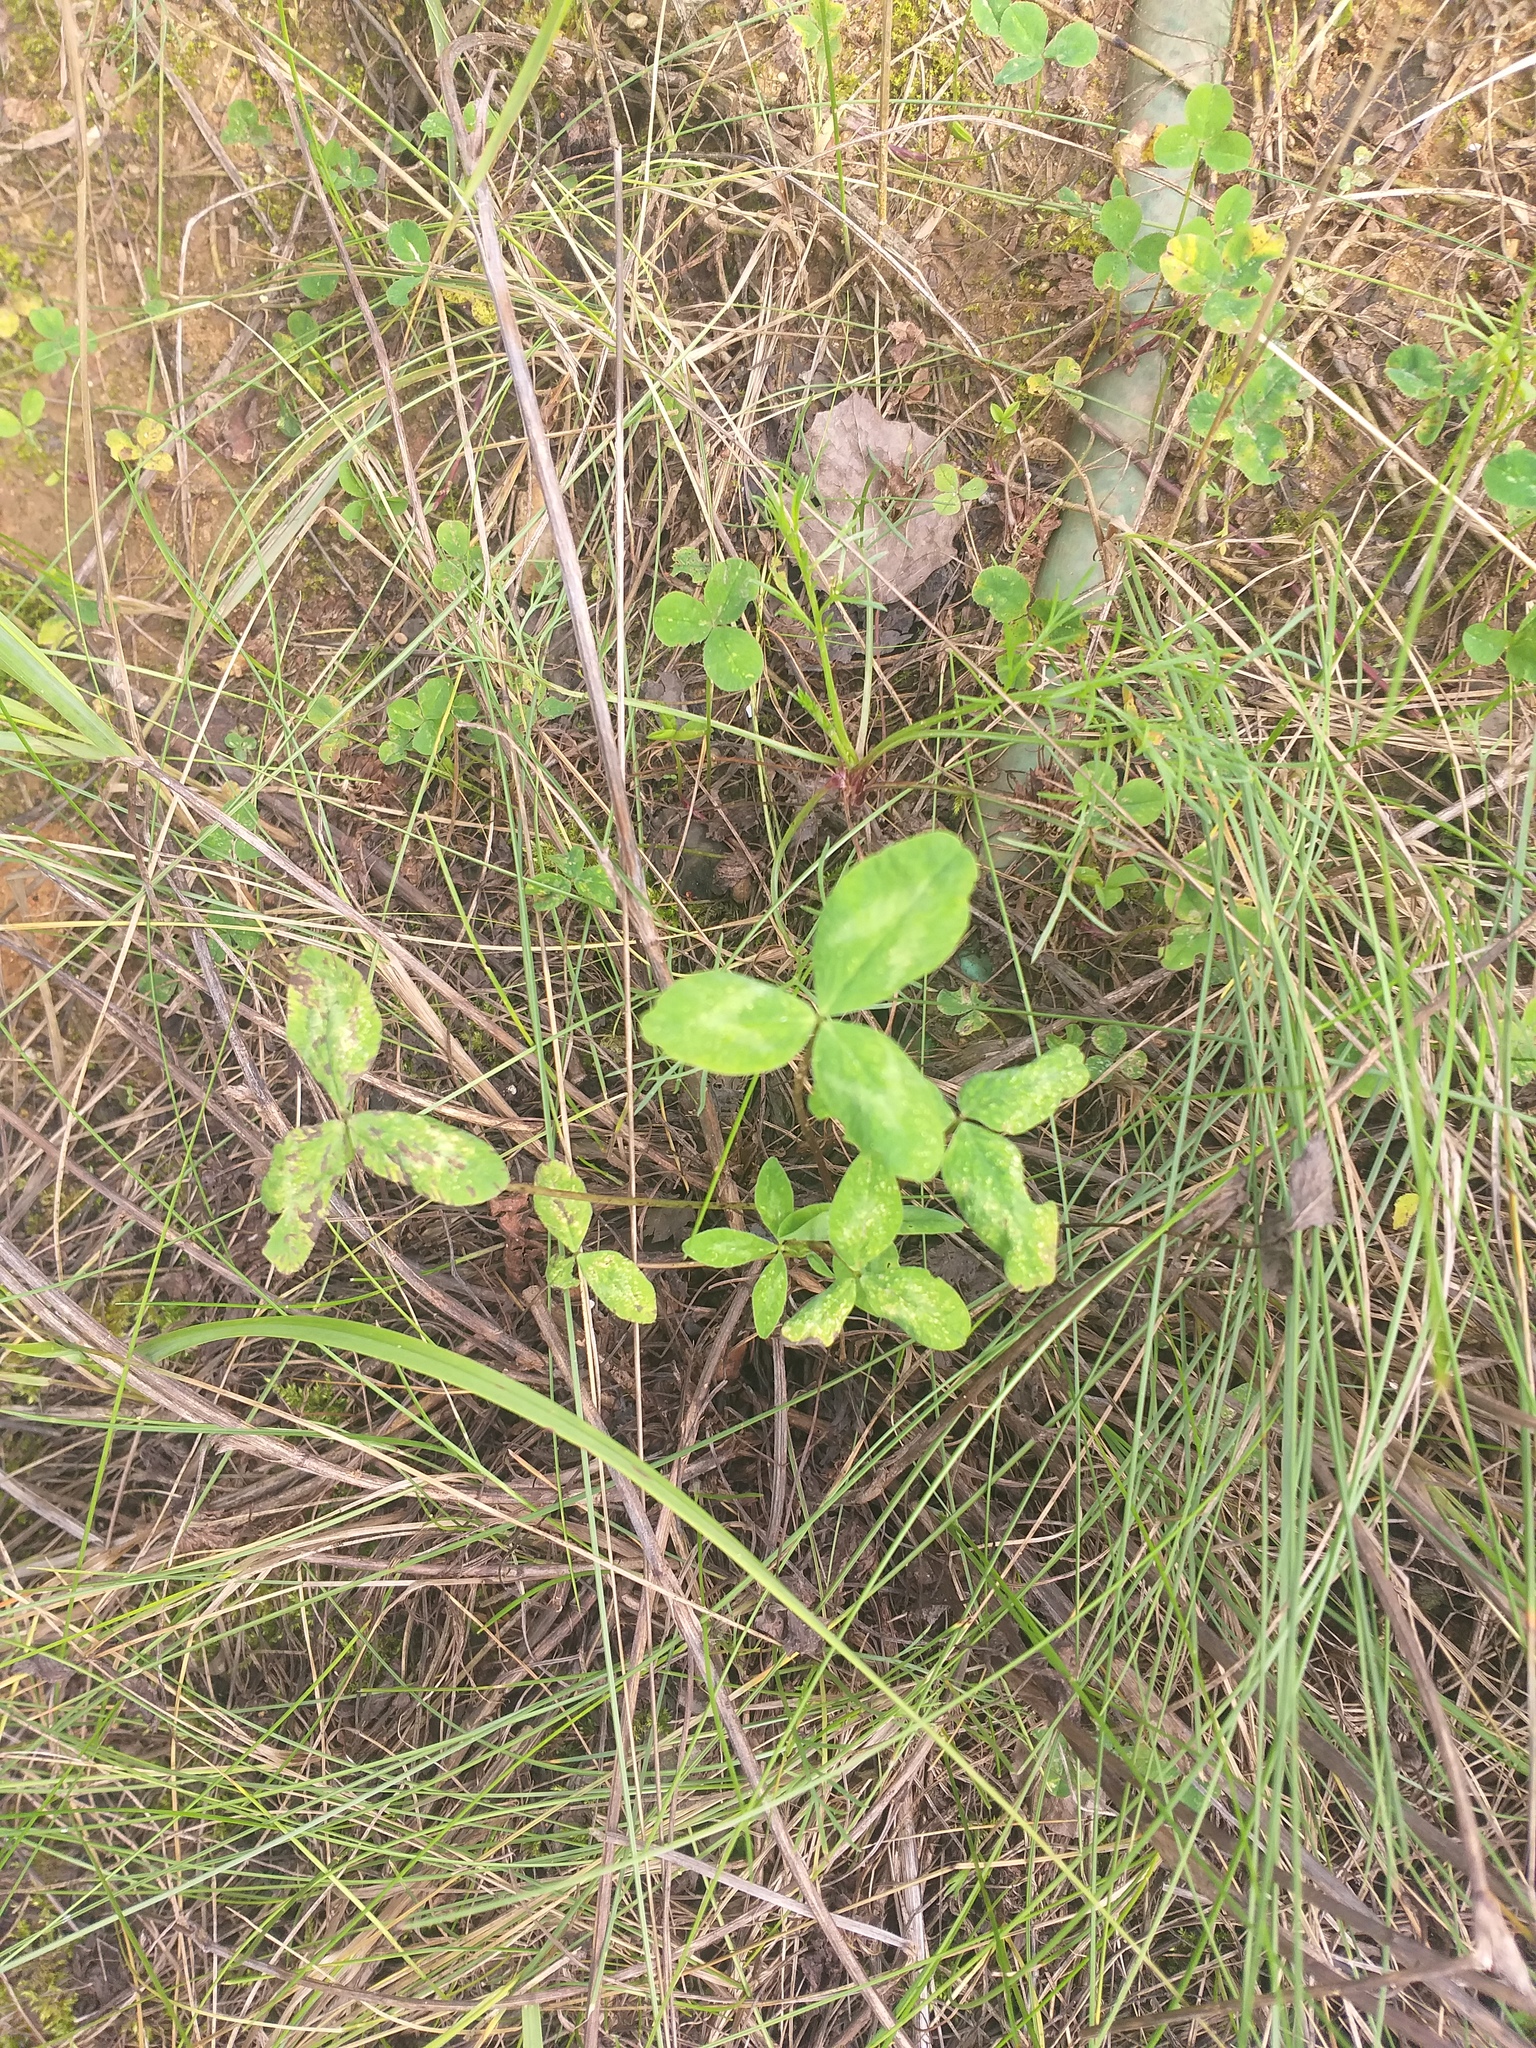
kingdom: Plantae
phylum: Tracheophyta
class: Magnoliopsida
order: Fabales
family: Fabaceae
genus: Trifolium
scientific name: Trifolium pratense
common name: Red clover
